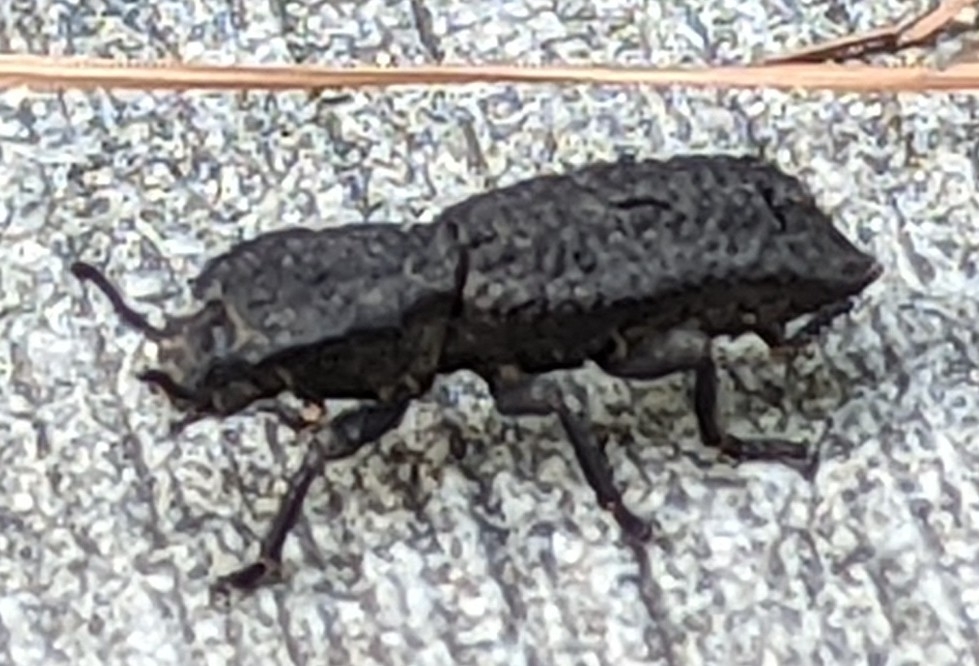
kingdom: Animalia
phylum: Arthropoda
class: Insecta
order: Coleoptera
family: Zopheridae
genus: Phloeodes
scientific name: Phloeodes diabolicus
